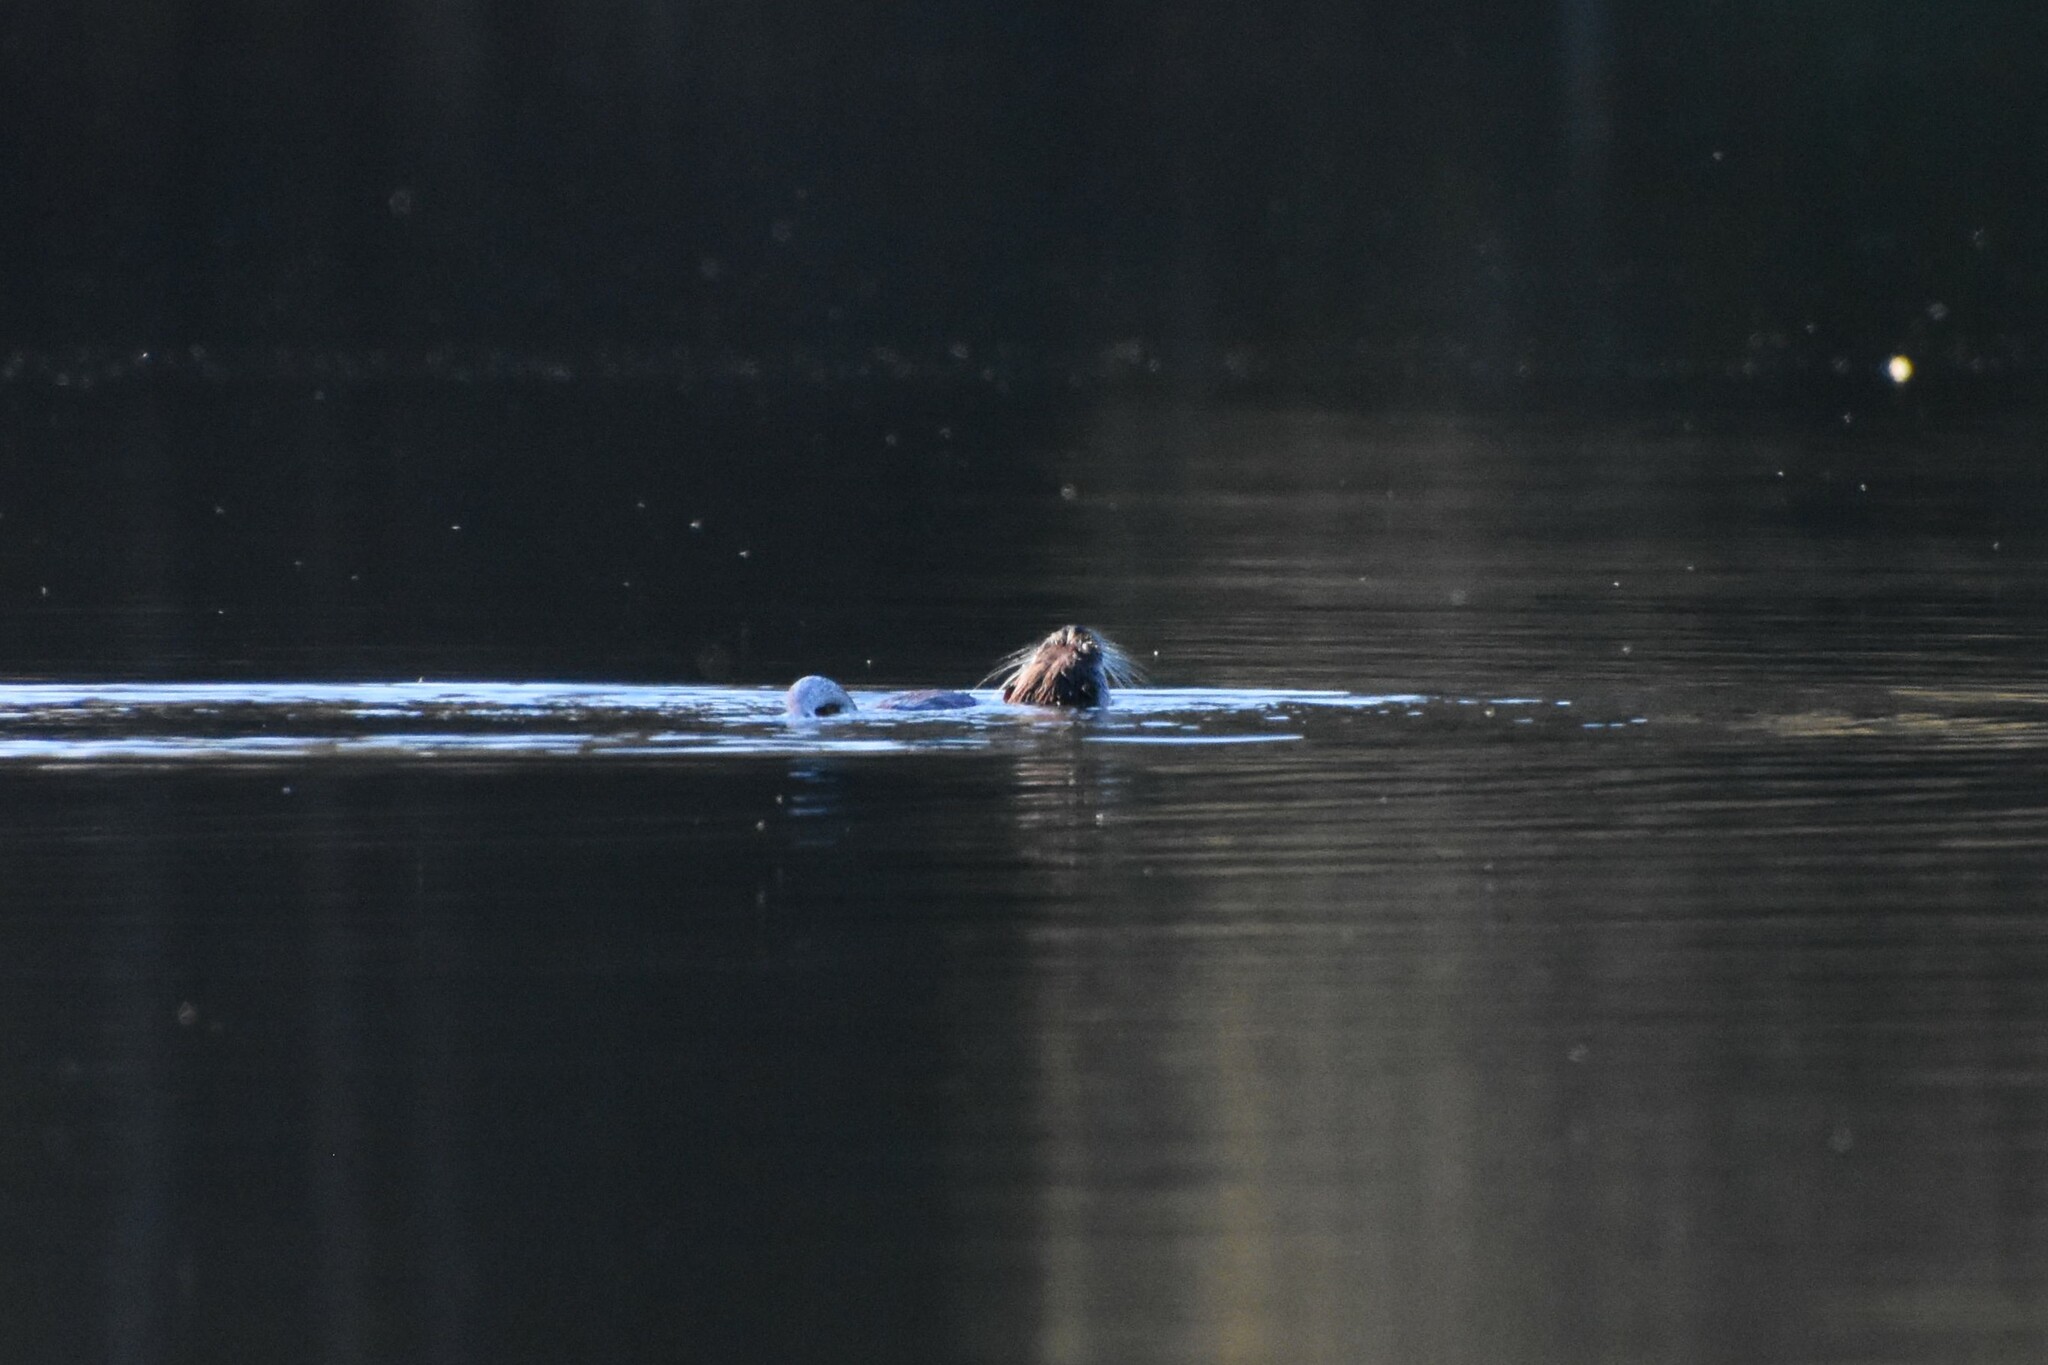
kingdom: Animalia
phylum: Chordata
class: Mammalia
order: Carnivora
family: Mustelidae
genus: Lutra
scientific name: Lutra lutra
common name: European otter
